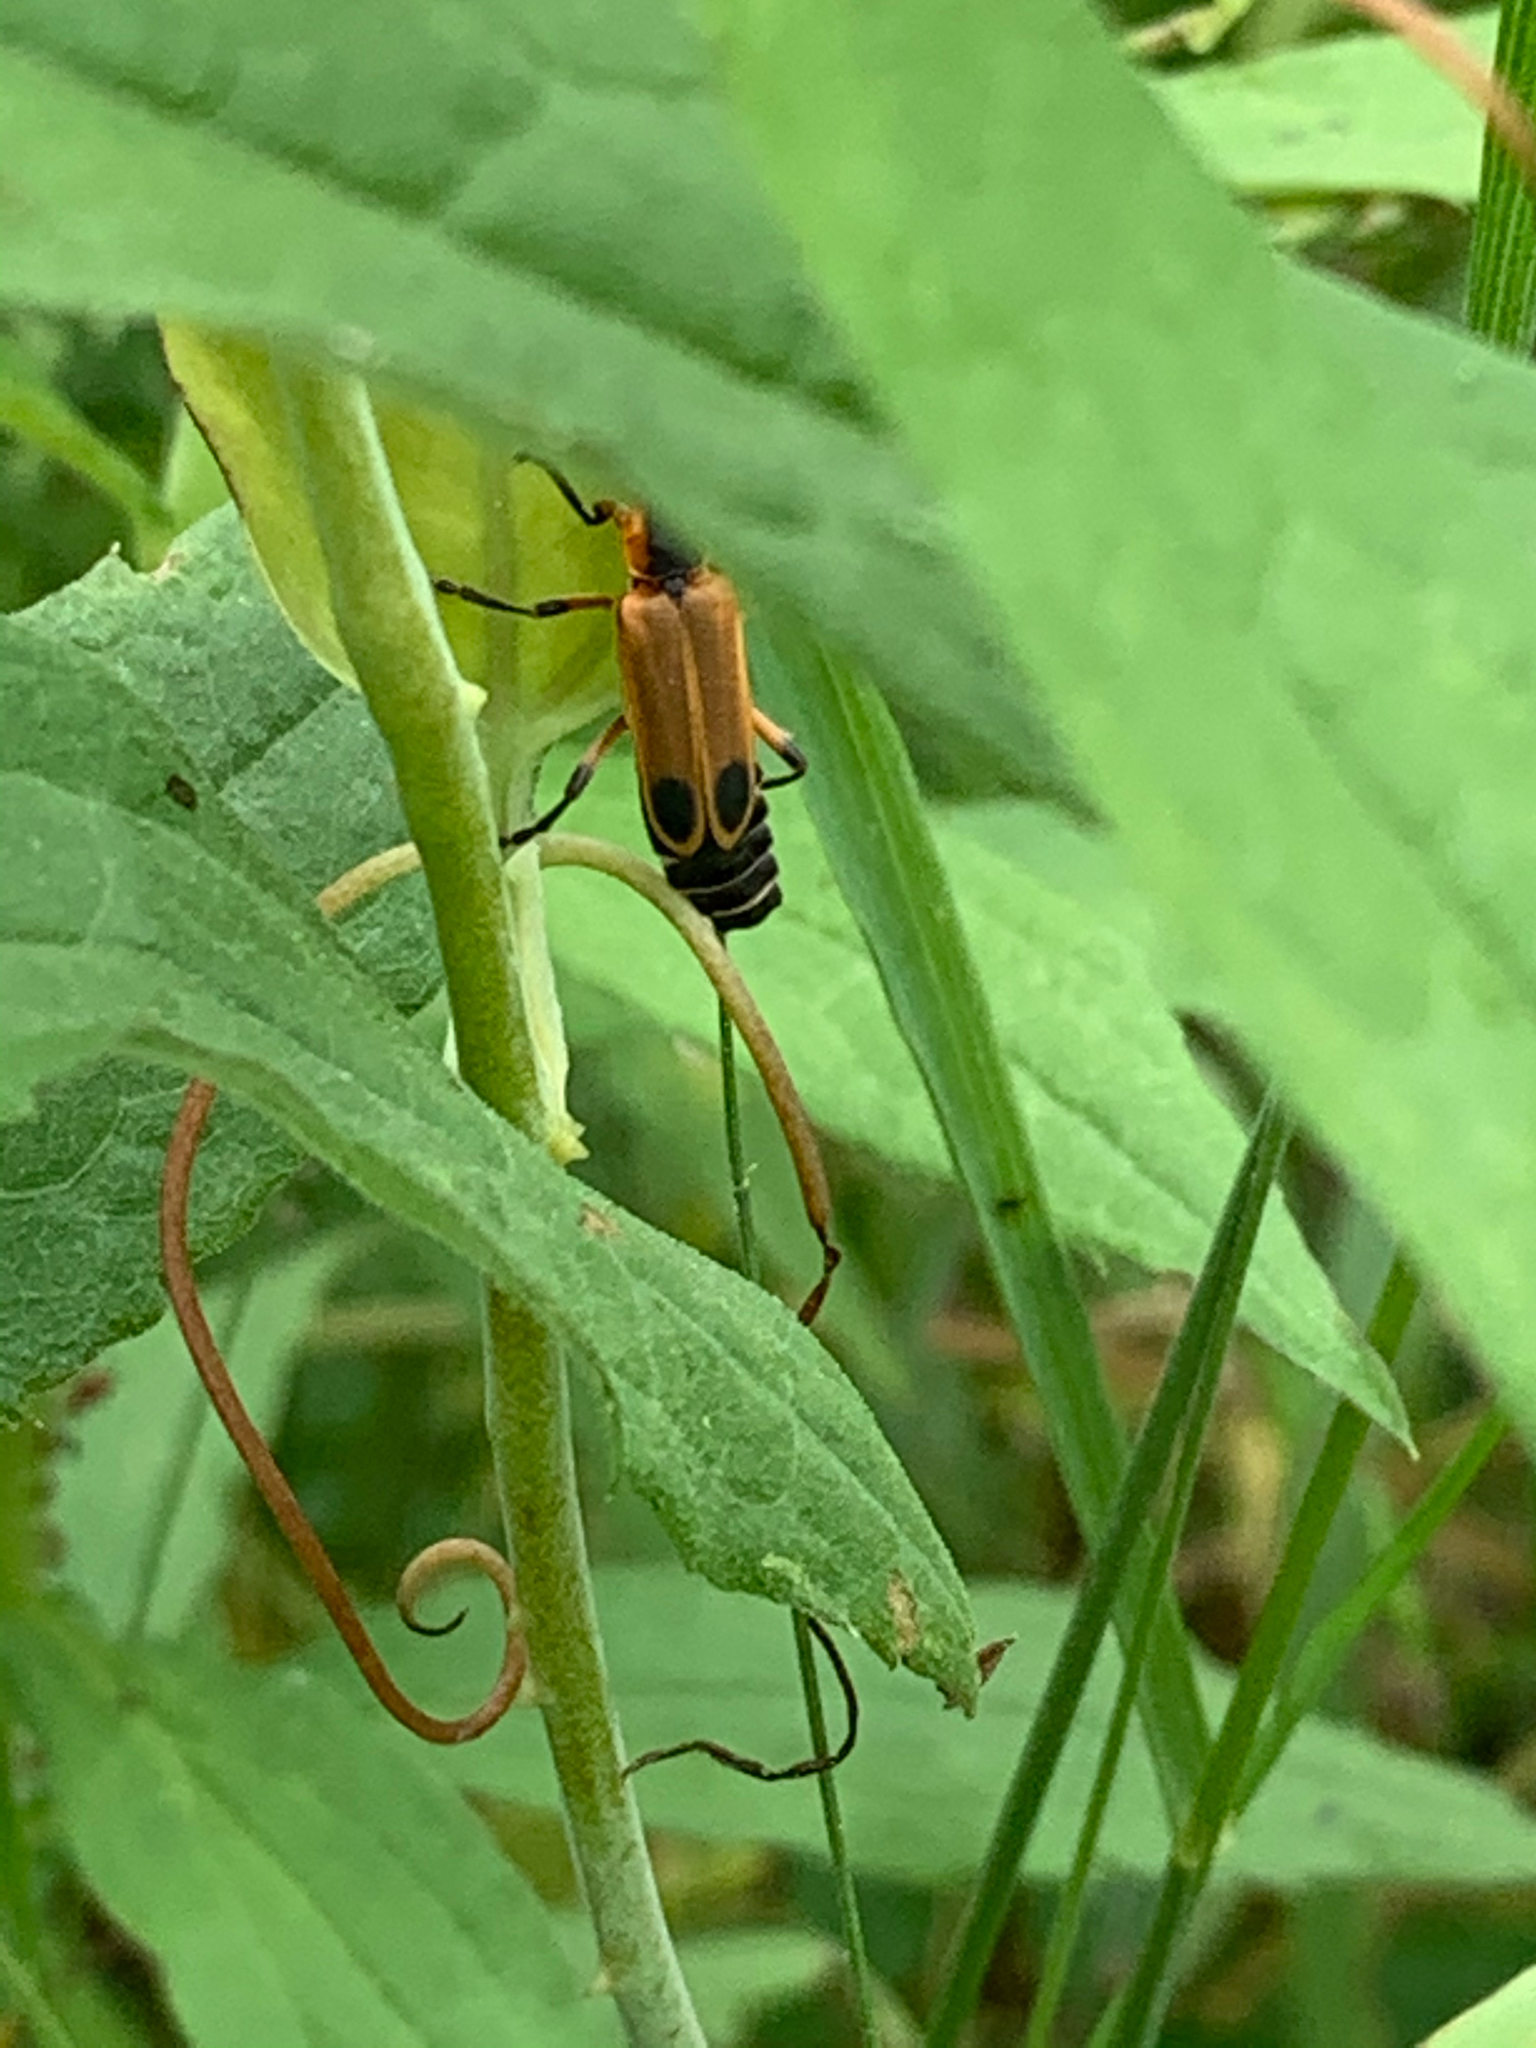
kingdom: Animalia
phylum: Arthropoda
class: Insecta
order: Coleoptera
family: Cantharidae
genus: Chauliognathus
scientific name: Chauliognathus marginatus
